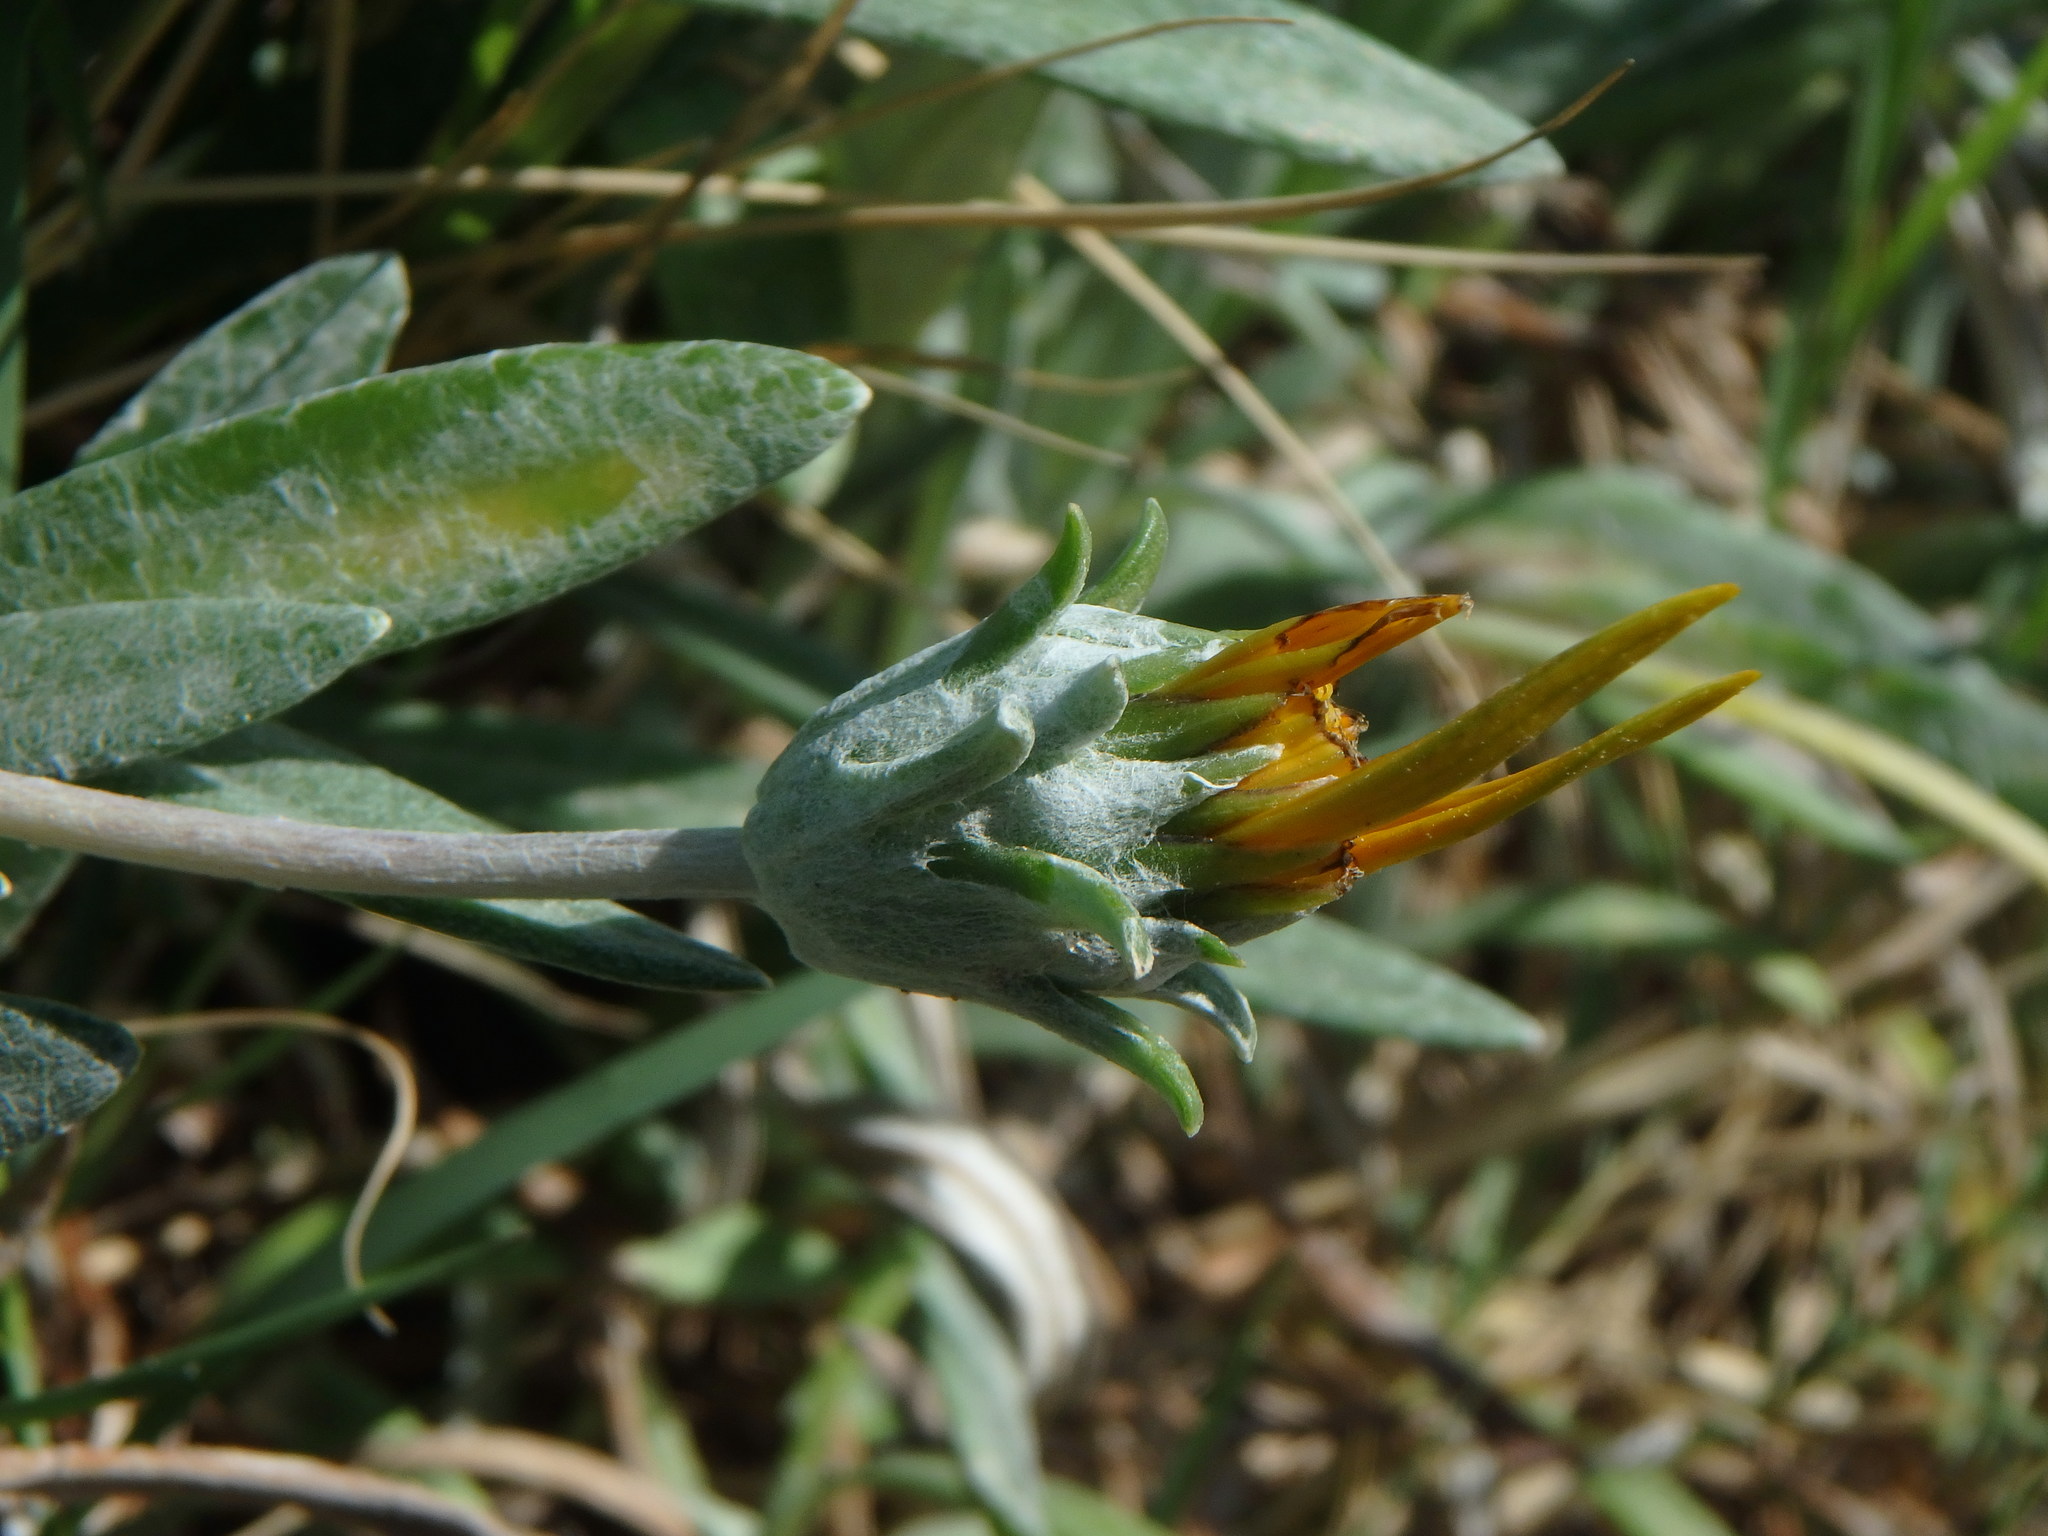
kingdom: Plantae
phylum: Tracheophyta
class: Magnoliopsida
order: Asterales
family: Asteraceae
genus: Gazania
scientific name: Gazania rigens
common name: Treasureflower
